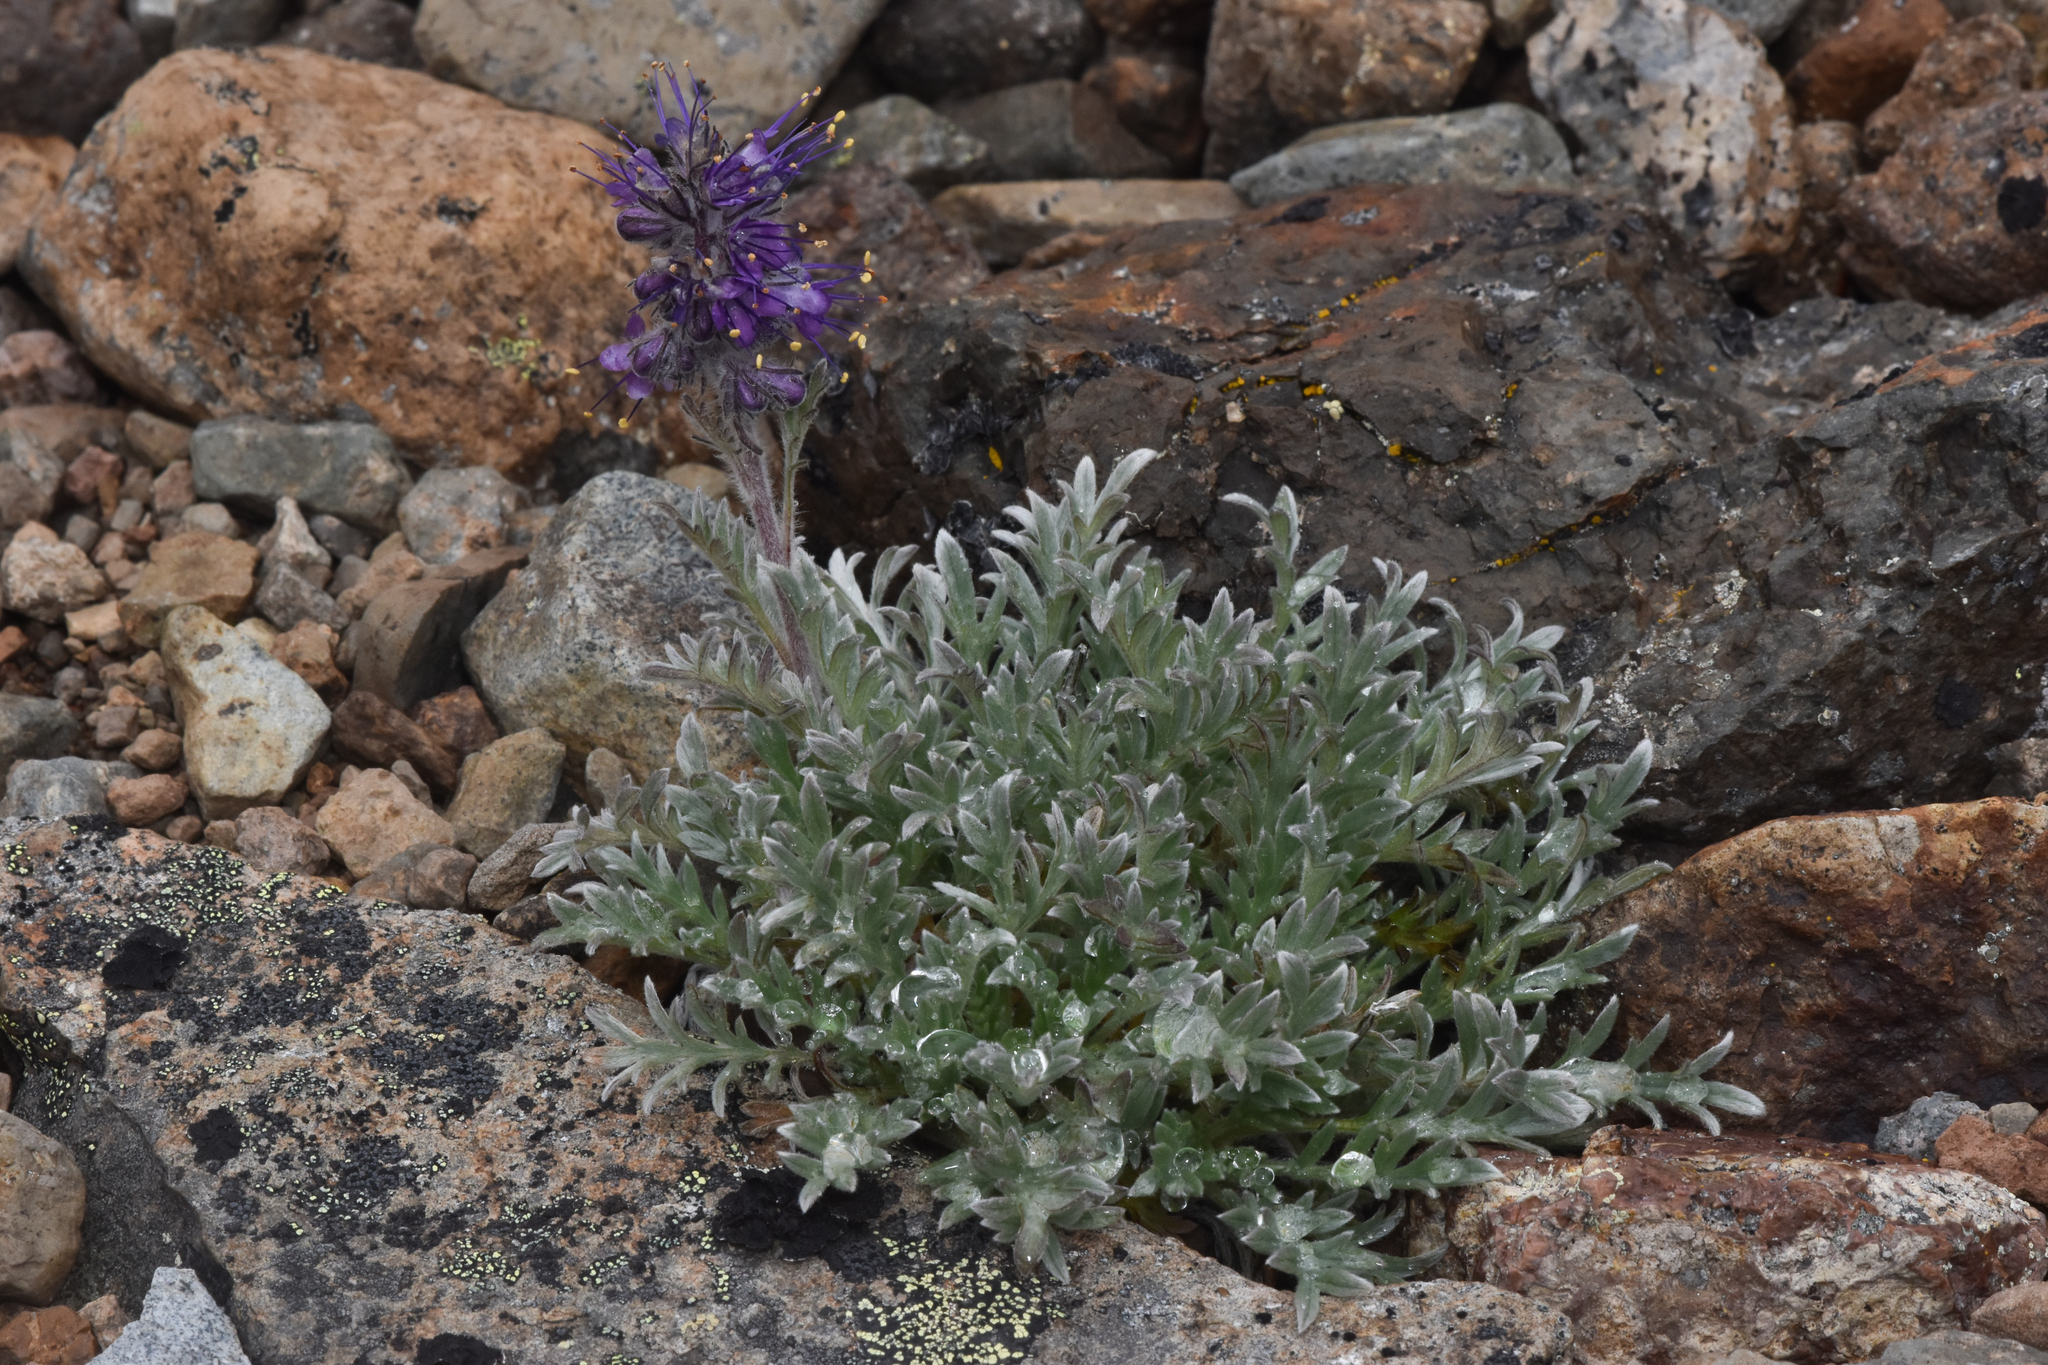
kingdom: Plantae
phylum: Tracheophyta
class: Magnoliopsida
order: Boraginales
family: Hydrophyllaceae
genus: Phacelia
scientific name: Phacelia sericea
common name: Silky phacelia
